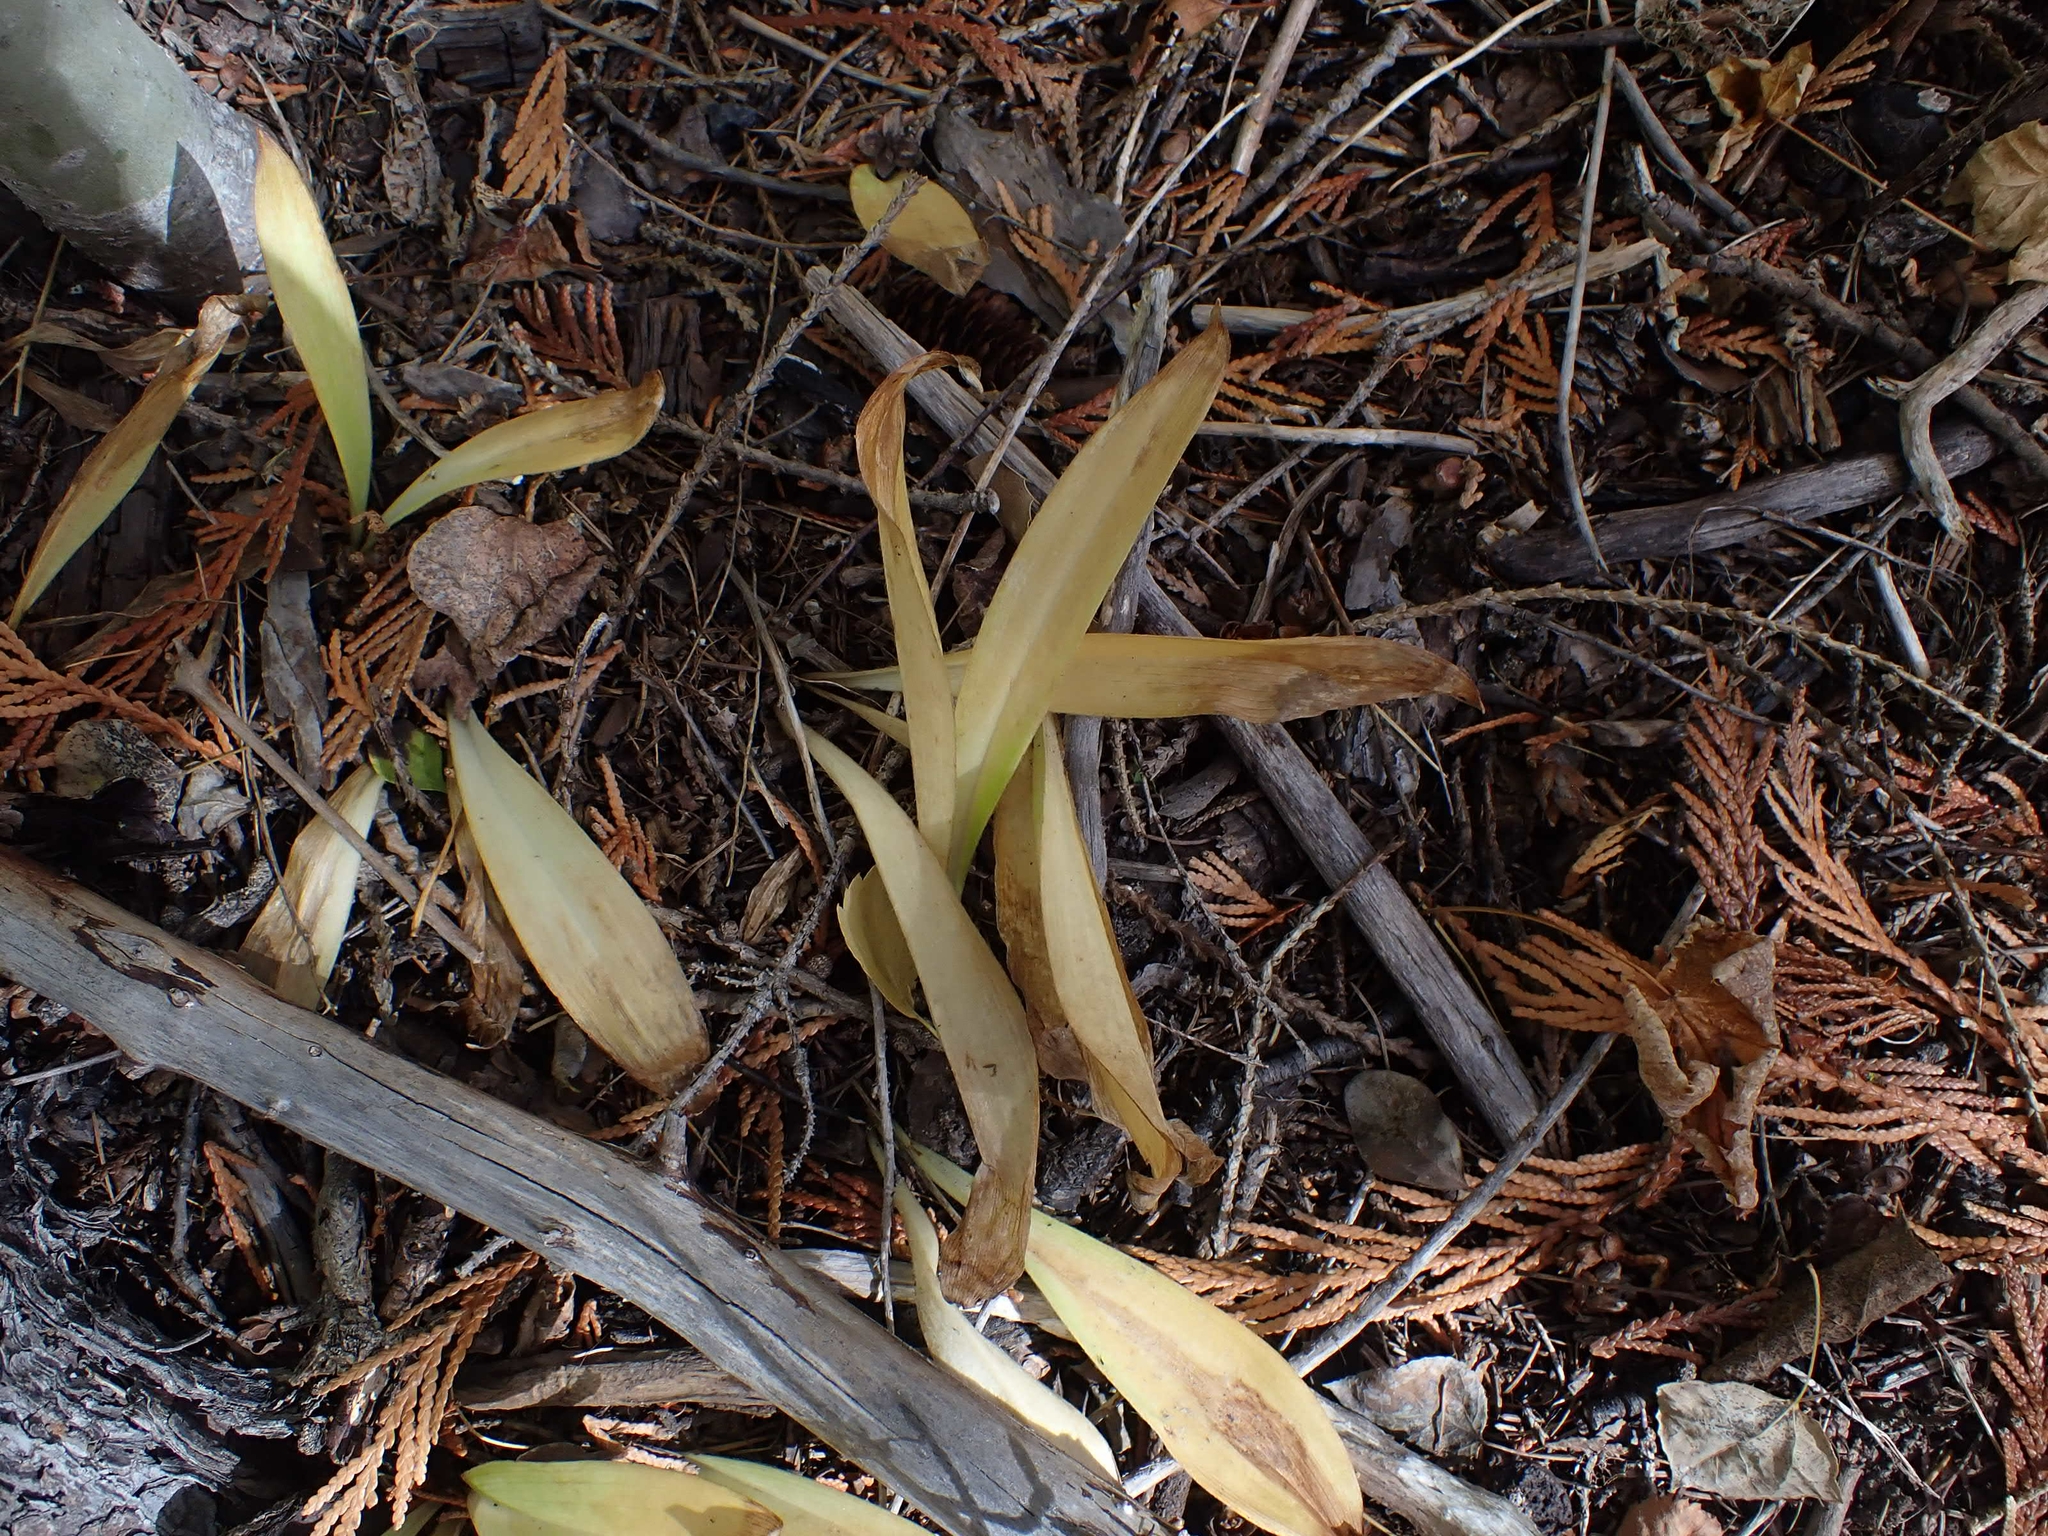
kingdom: Plantae
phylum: Tracheophyta
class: Liliopsida
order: Liliales
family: Liliaceae
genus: Clintonia
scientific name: Clintonia uniflora
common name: Queen's cup
